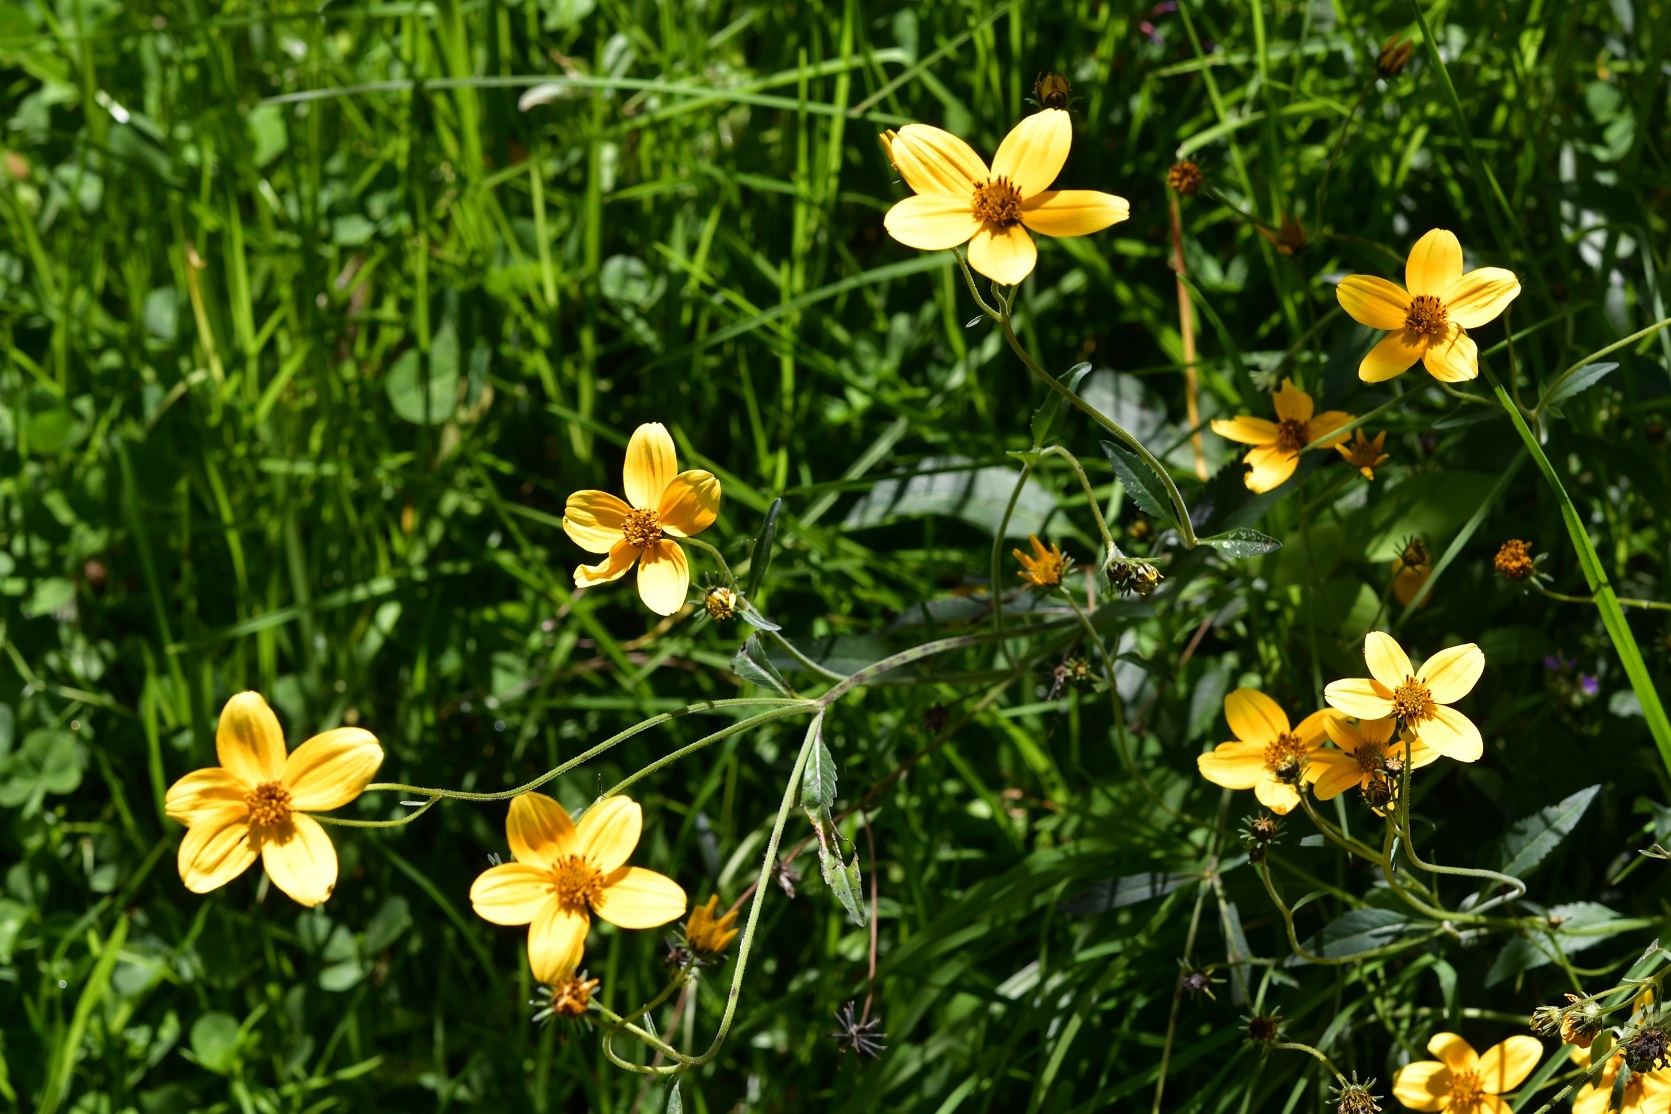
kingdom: Plantae
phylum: Tracheophyta
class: Magnoliopsida
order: Asterales
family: Asteraceae
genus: Bidens
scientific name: Bidens aurea
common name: Arizona beggar-ticks
